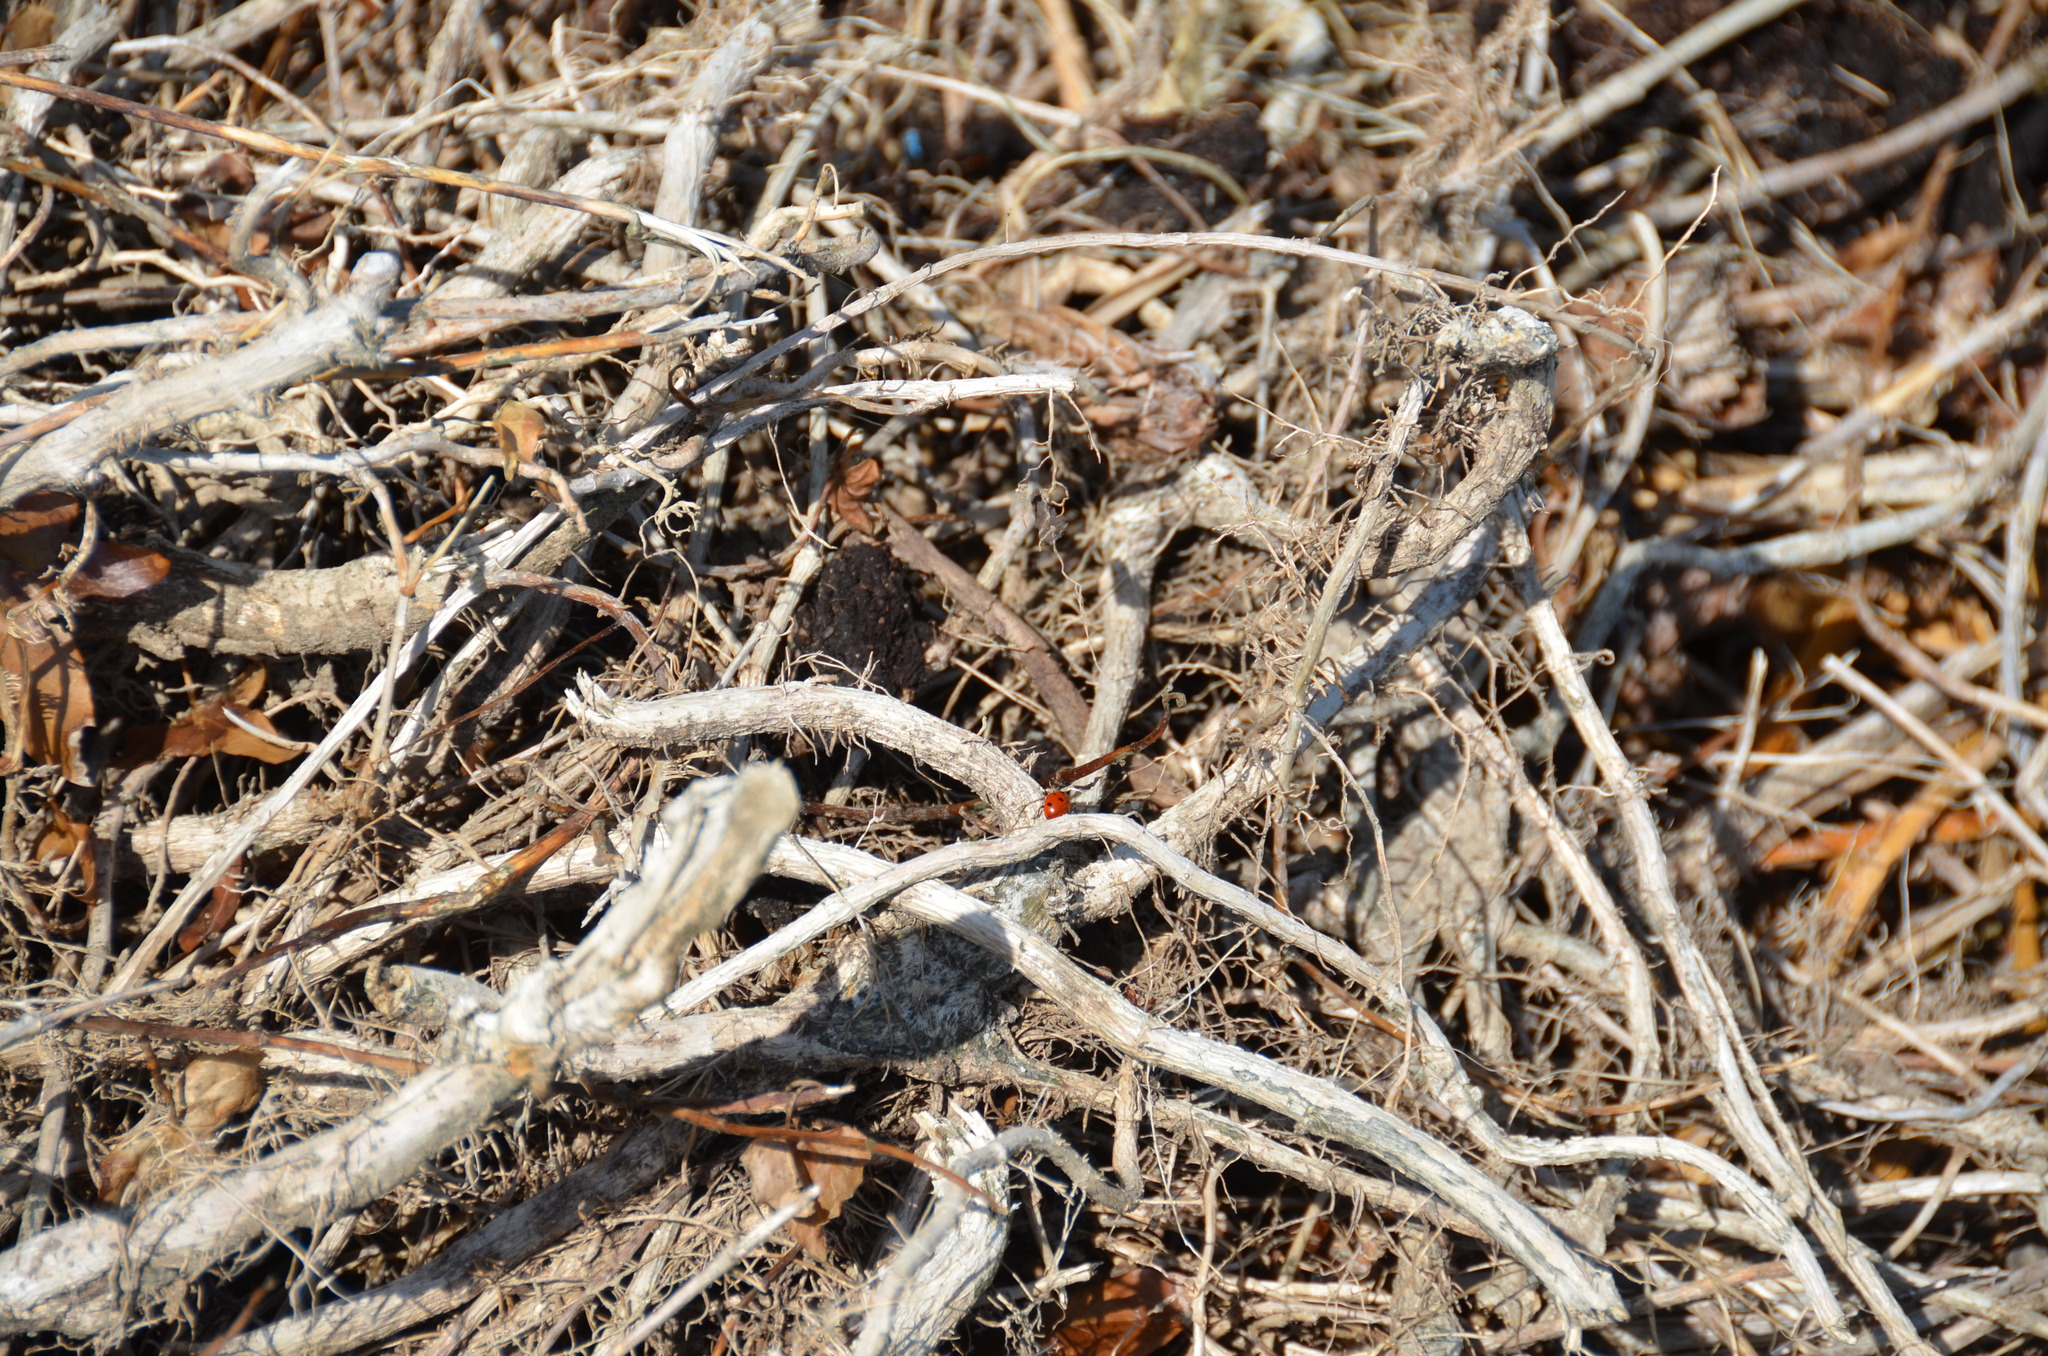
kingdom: Animalia
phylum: Arthropoda
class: Insecta
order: Coleoptera
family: Coccinellidae
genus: Coccinella
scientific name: Coccinella septempunctata
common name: Sevenspotted lady beetle
